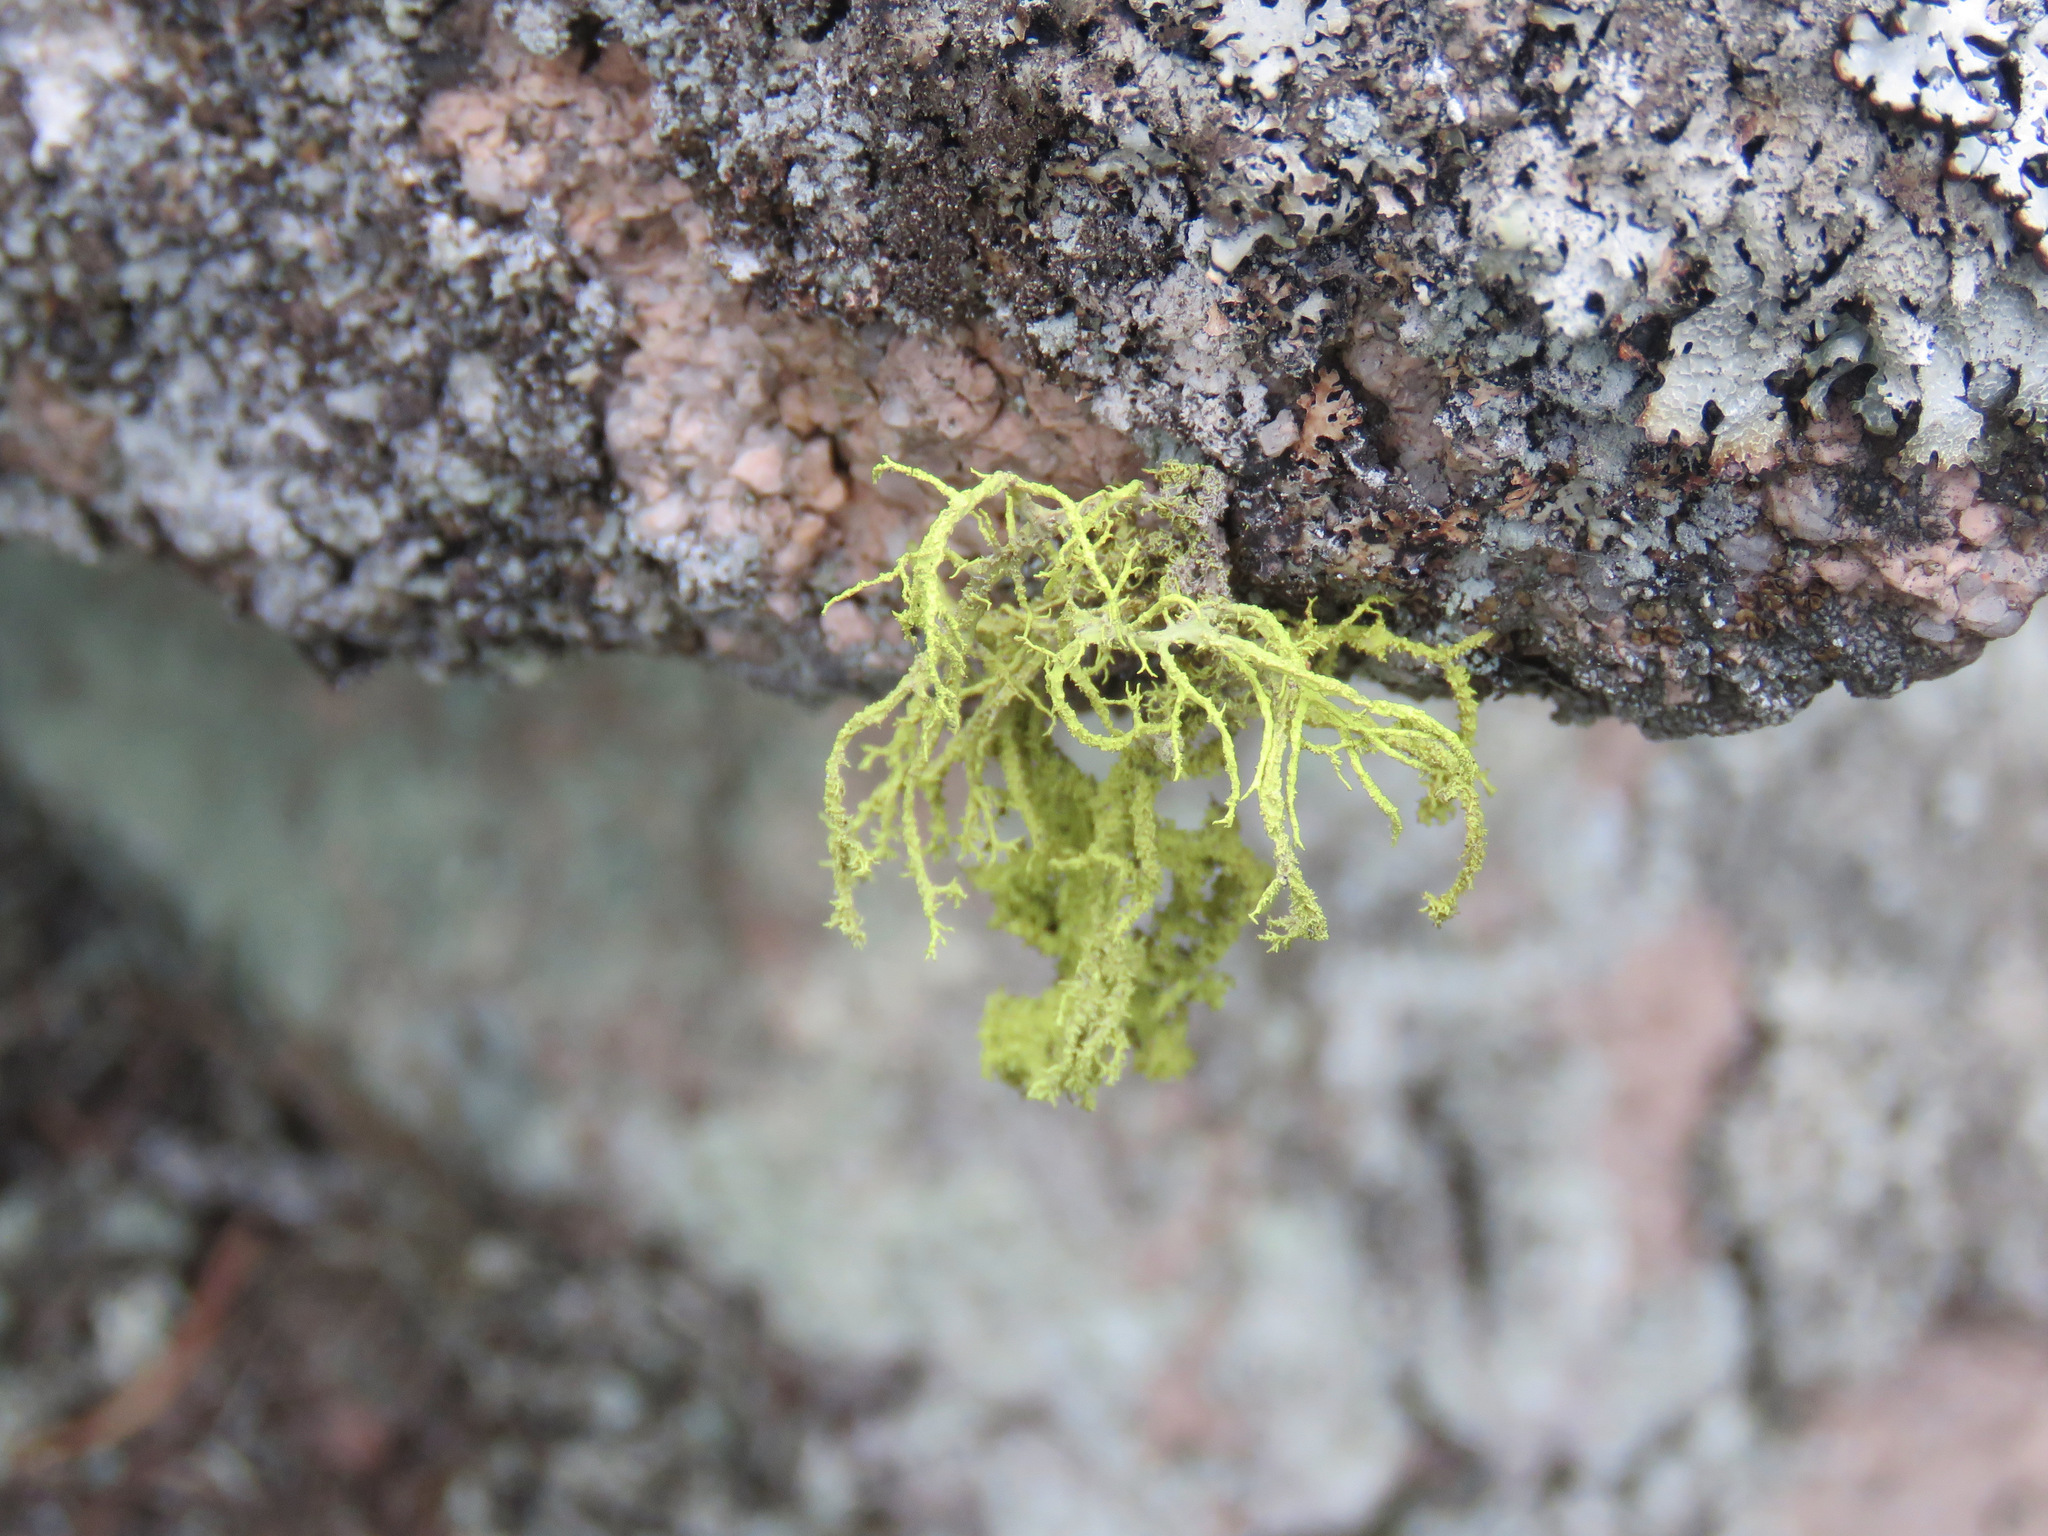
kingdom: Fungi
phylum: Ascomycota
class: Lecanoromycetes
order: Lecanorales
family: Parmeliaceae
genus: Letharia
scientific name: Letharia vulpina
